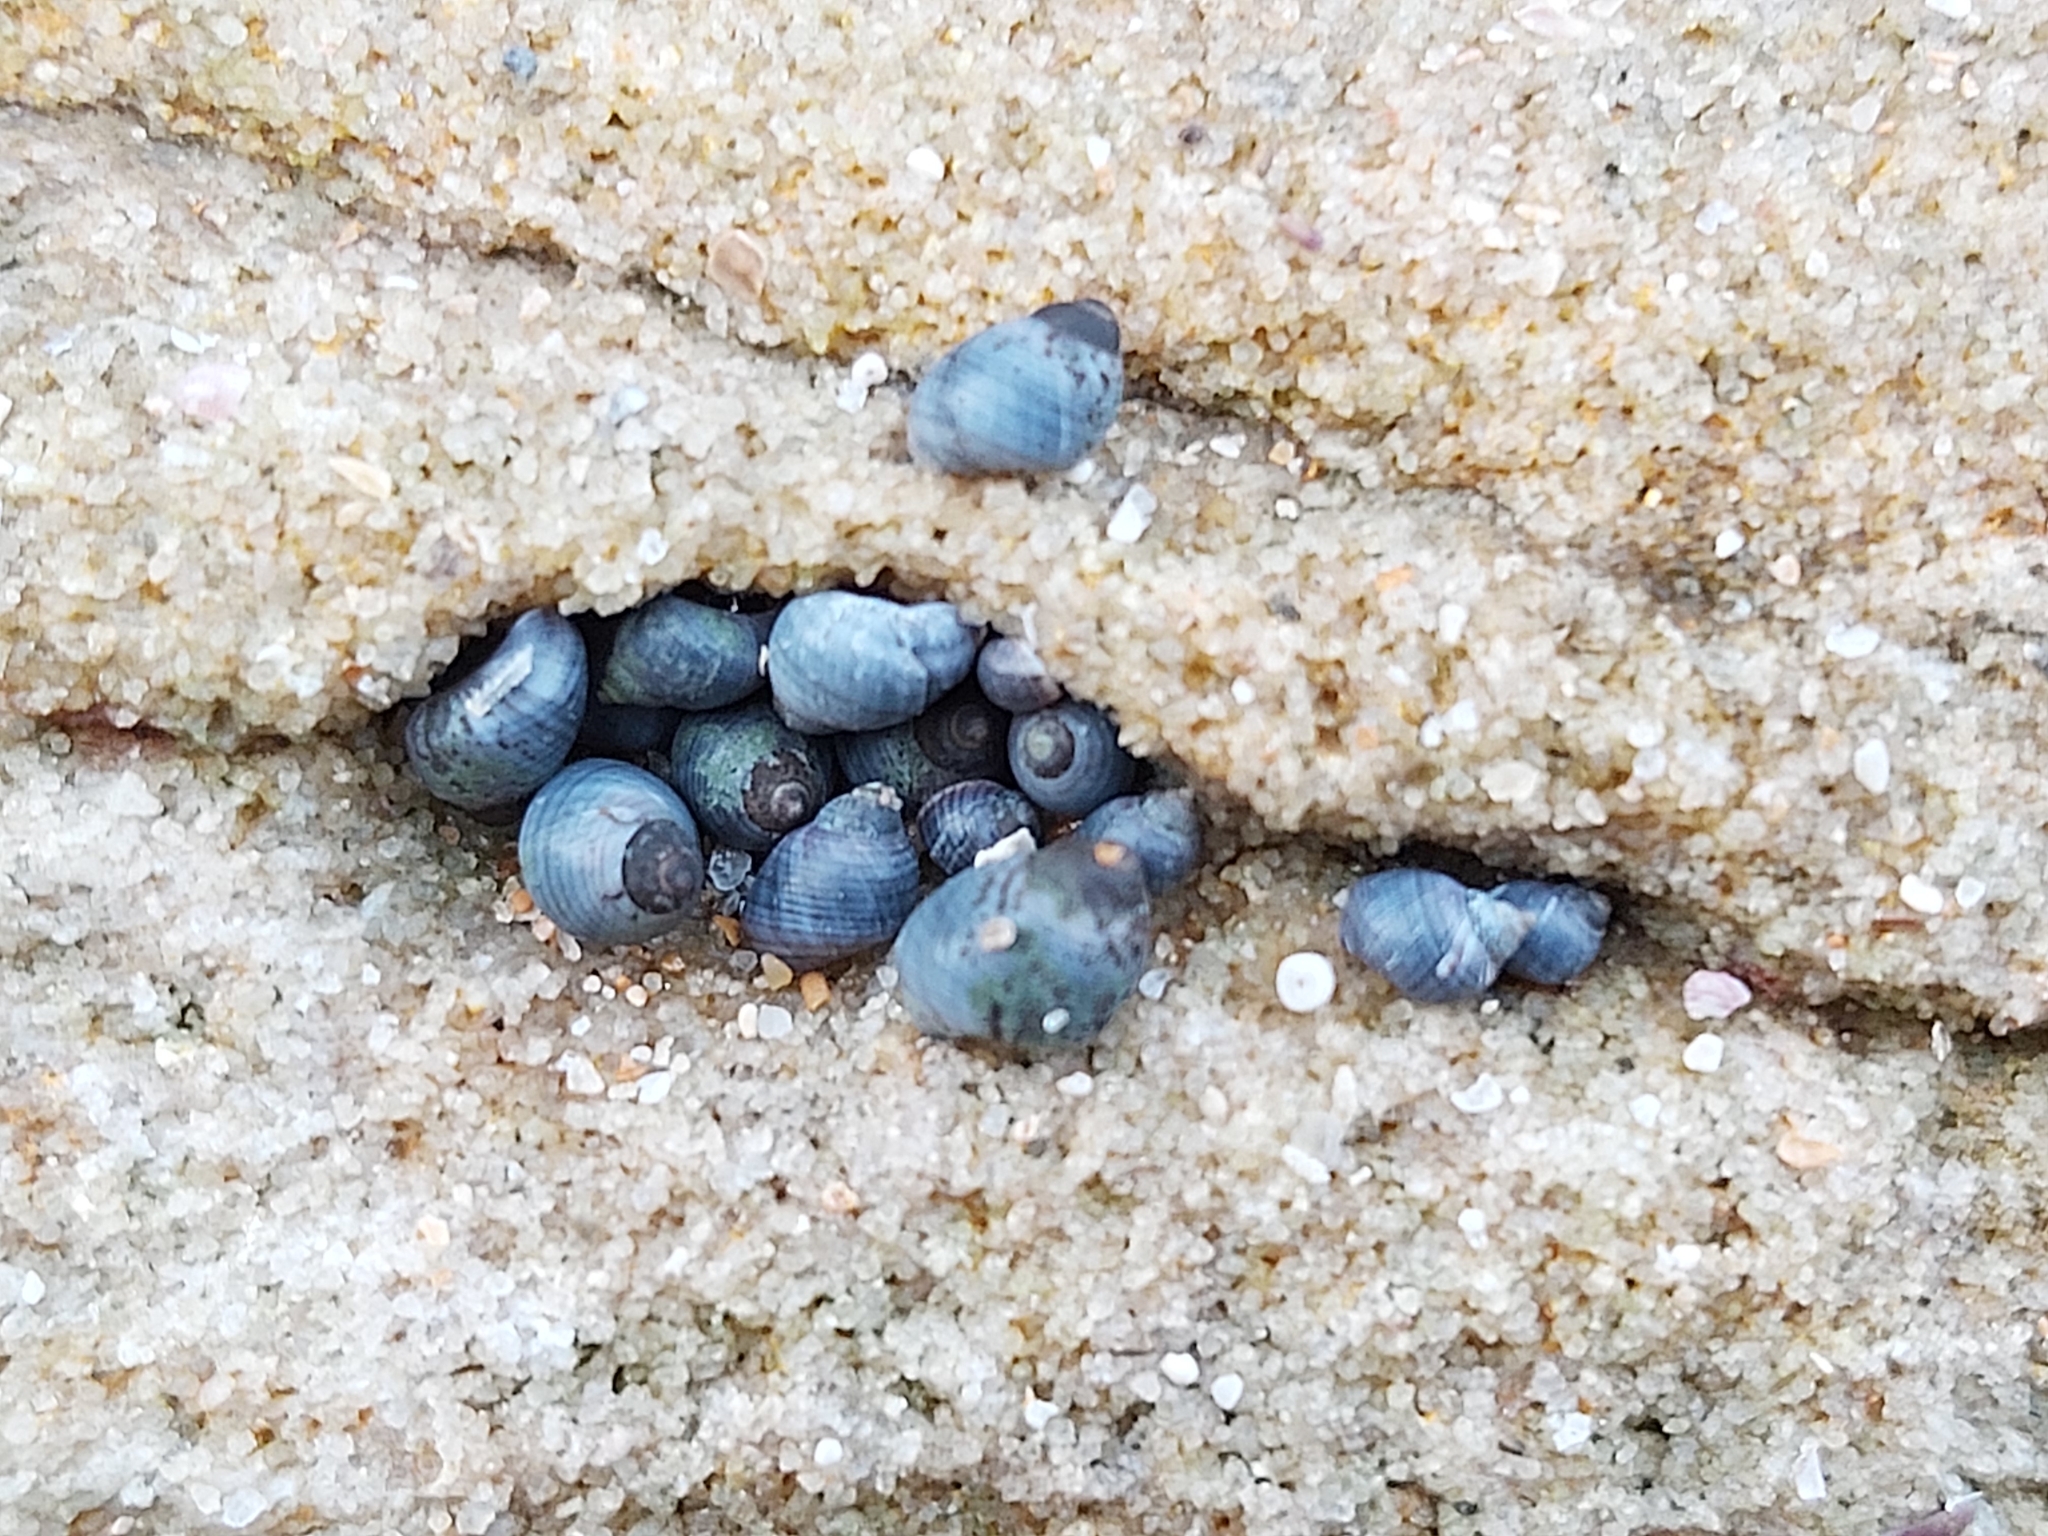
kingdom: Animalia
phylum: Mollusca
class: Gastropoda
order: Littorinimorpha
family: Littorinidae
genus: Austrolittorina
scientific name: Austrolittorina unifasciata
